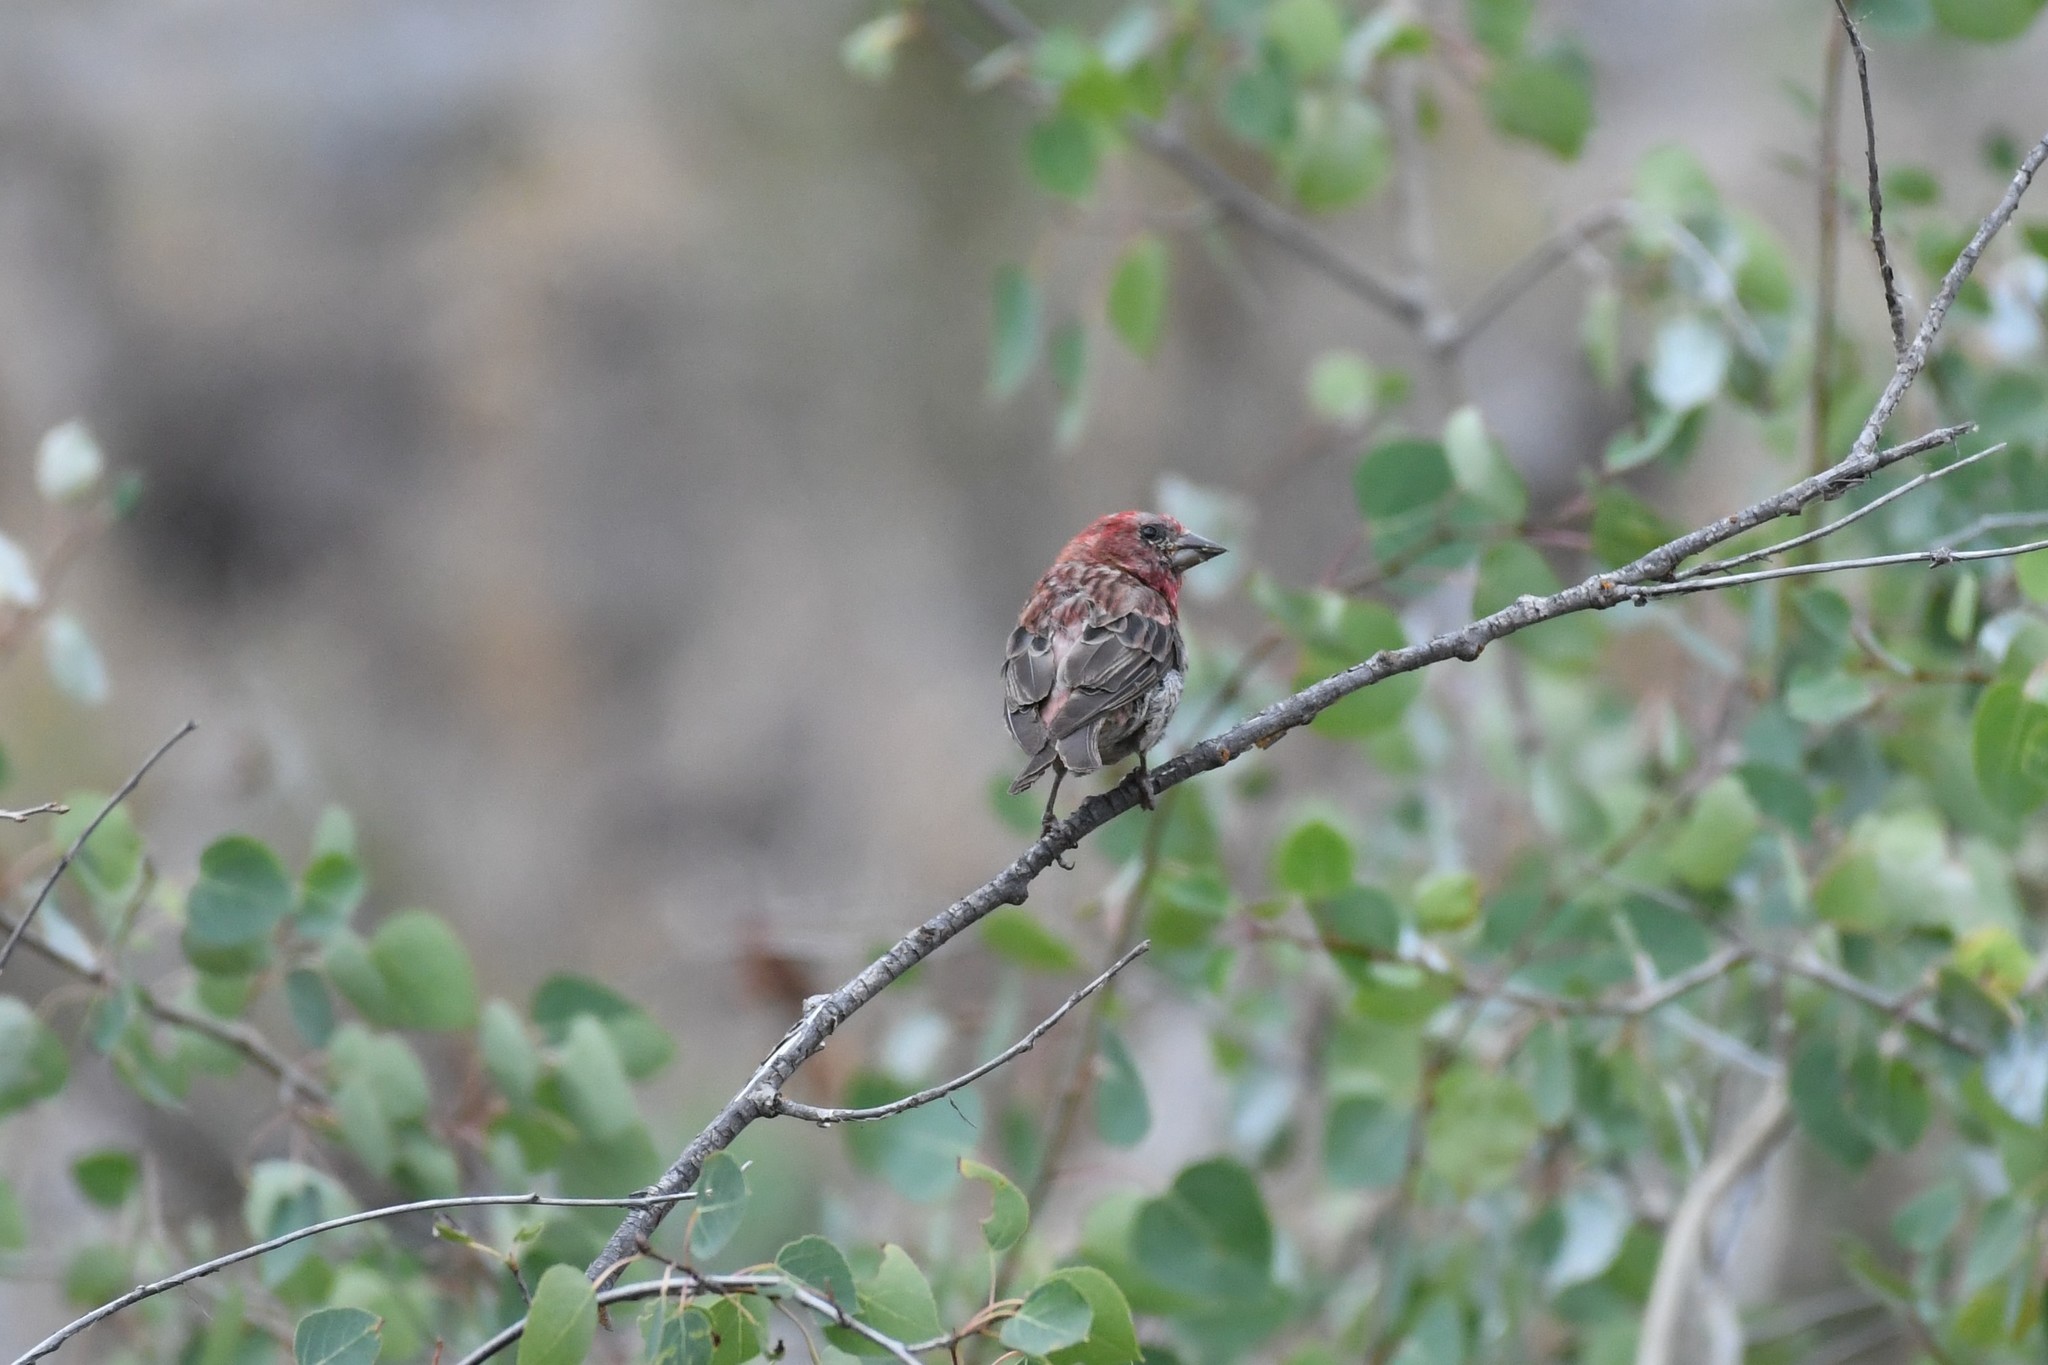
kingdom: Animalia
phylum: Chordata
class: Aves
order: Passeriformes
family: Fringillidae
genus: Haemorhous
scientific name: Haemorhous cassinii
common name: Cassin's finch
